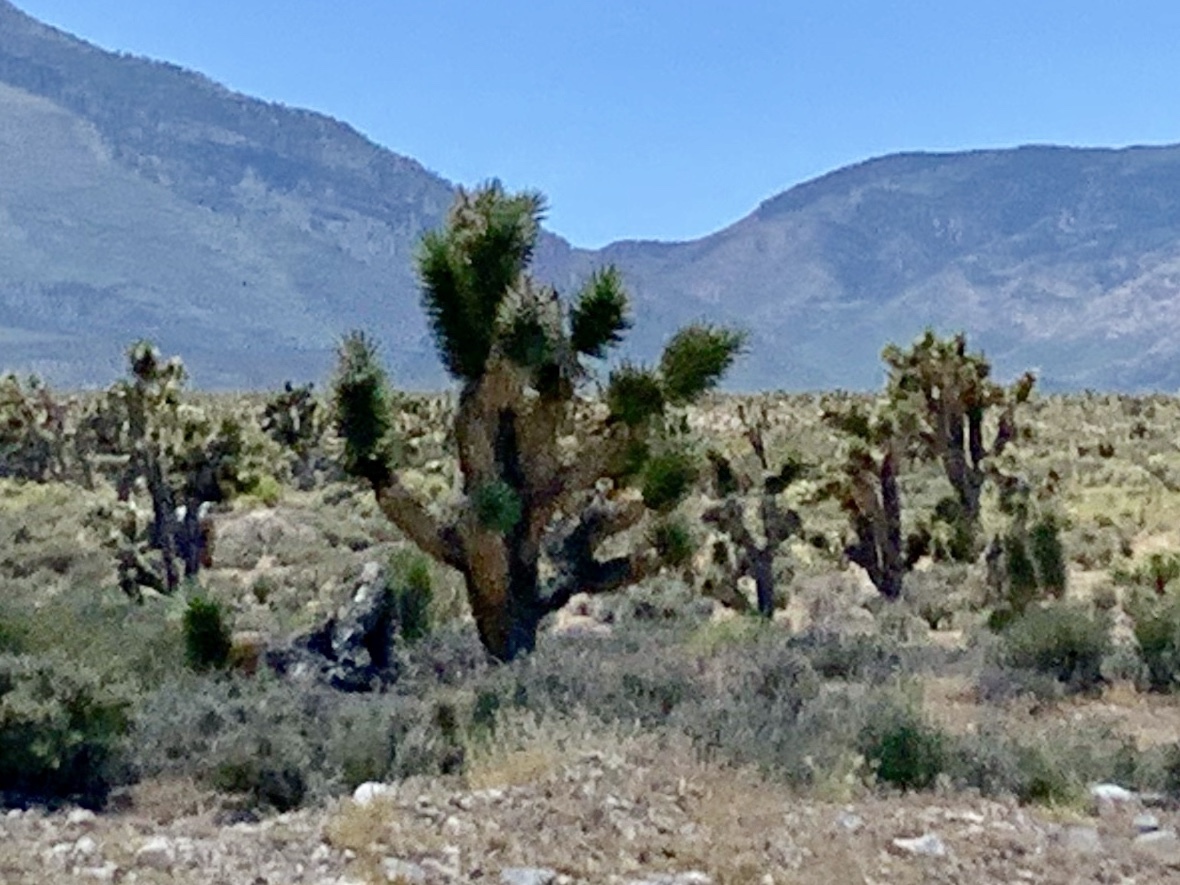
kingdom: Plantae
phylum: Tracheophyta
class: Liliopsida
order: Asparagales
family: Asparagaceae
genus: Yucca
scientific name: Yucca brevifolia
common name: Joshua tree
